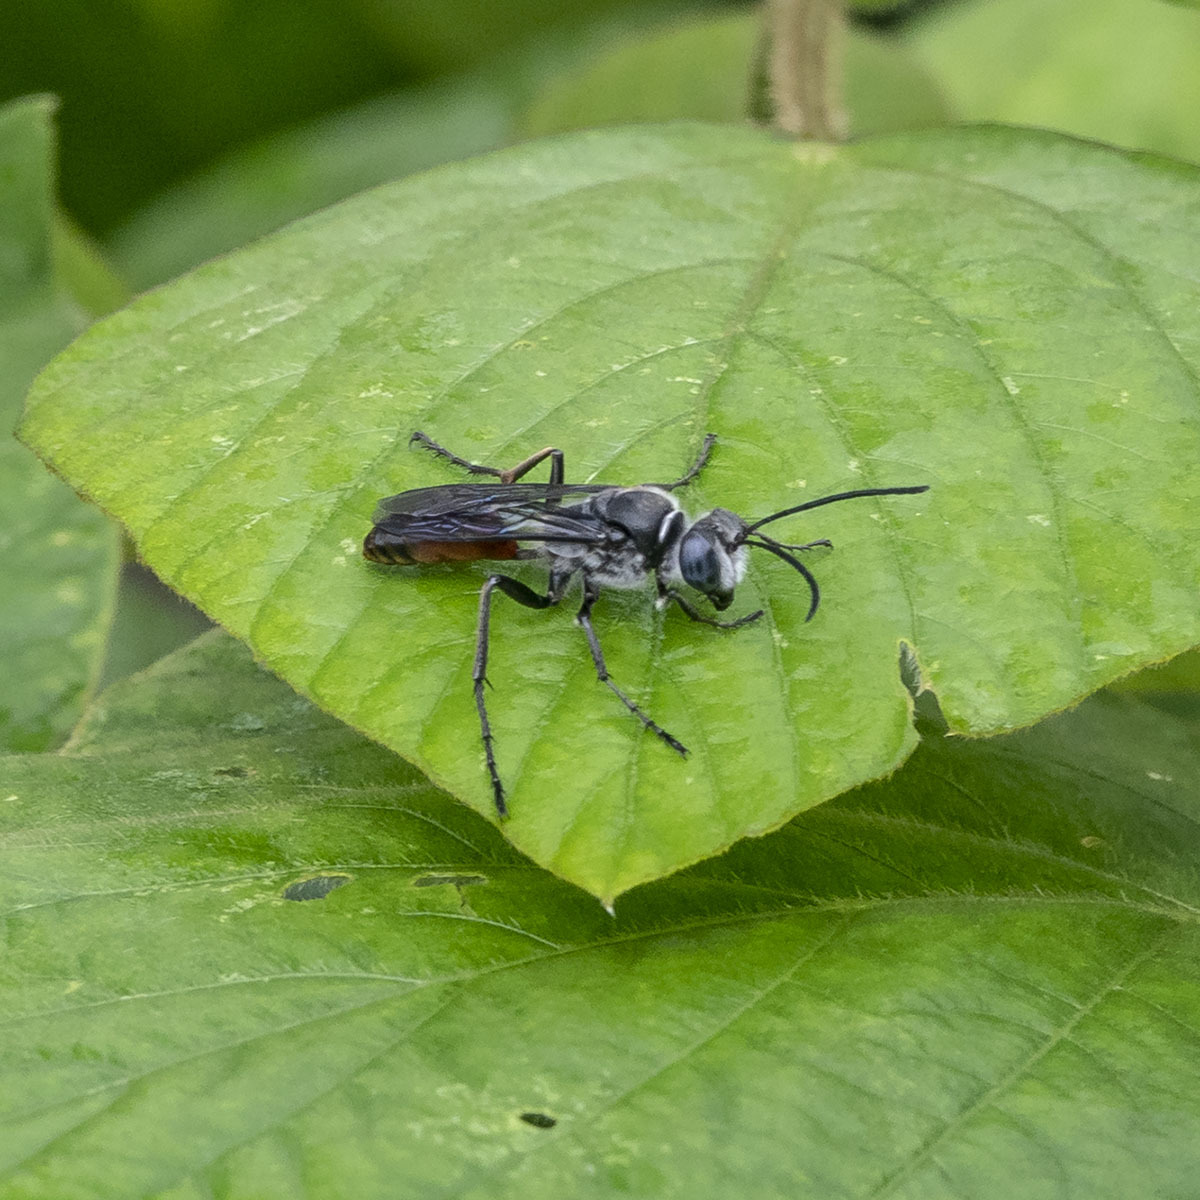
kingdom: Animalia
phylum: Arthropoda
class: Insecta
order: Hymenoptera
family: Sphecidae
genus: Sphex
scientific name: Sphex sericeus
